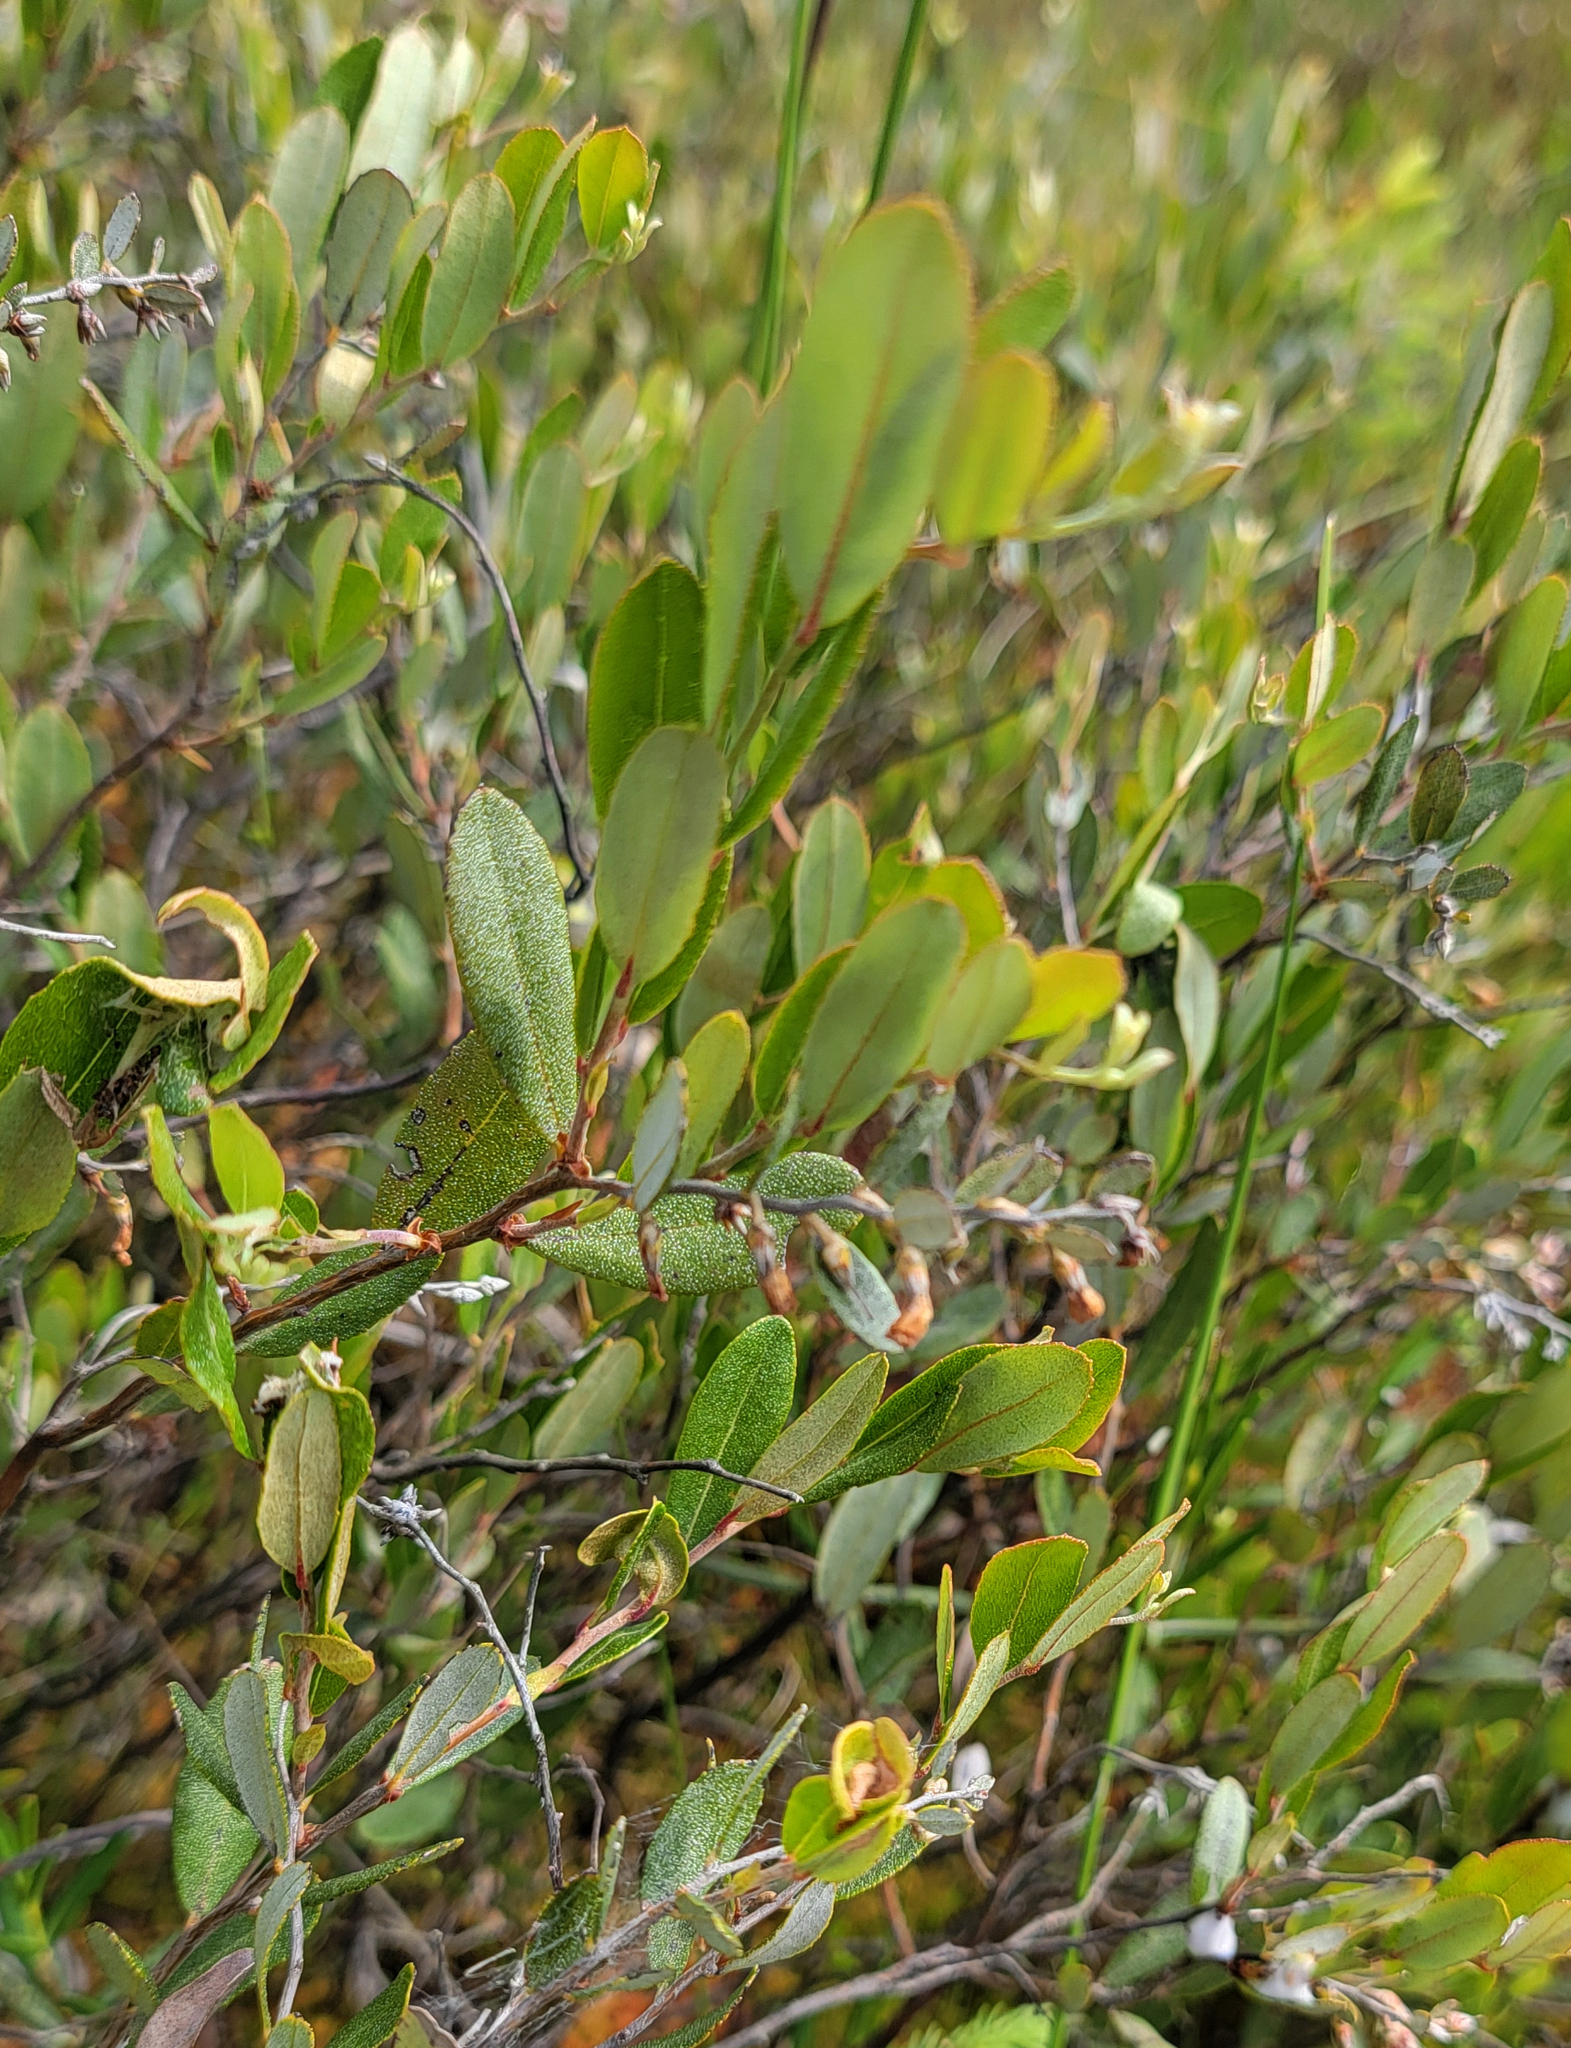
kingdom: Plantae
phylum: Tracheophyta
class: Magnoliopsida
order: Ericales
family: Ericaceae
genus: Chamaedaphne
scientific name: Chamaedaphne calyculata
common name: Leatherleaf
